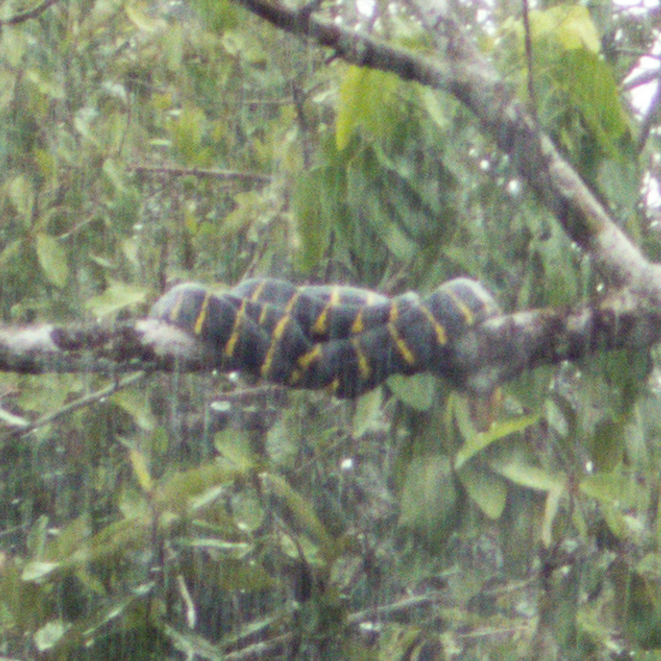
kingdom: Animalia
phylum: Chordata
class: Squamata
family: Colubridae
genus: Boiga
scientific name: Boiga melanota
